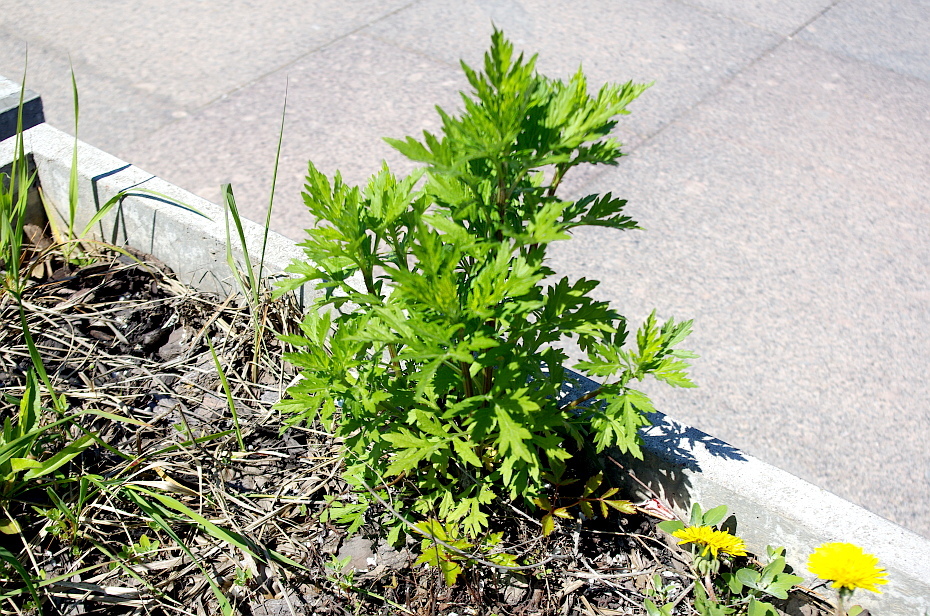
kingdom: Plantae
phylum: Tracheophyta
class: Magnoliopsida
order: Asterales
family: Asteraceae
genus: Artemisia
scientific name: Artemisia vulgaris
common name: Mugwort
